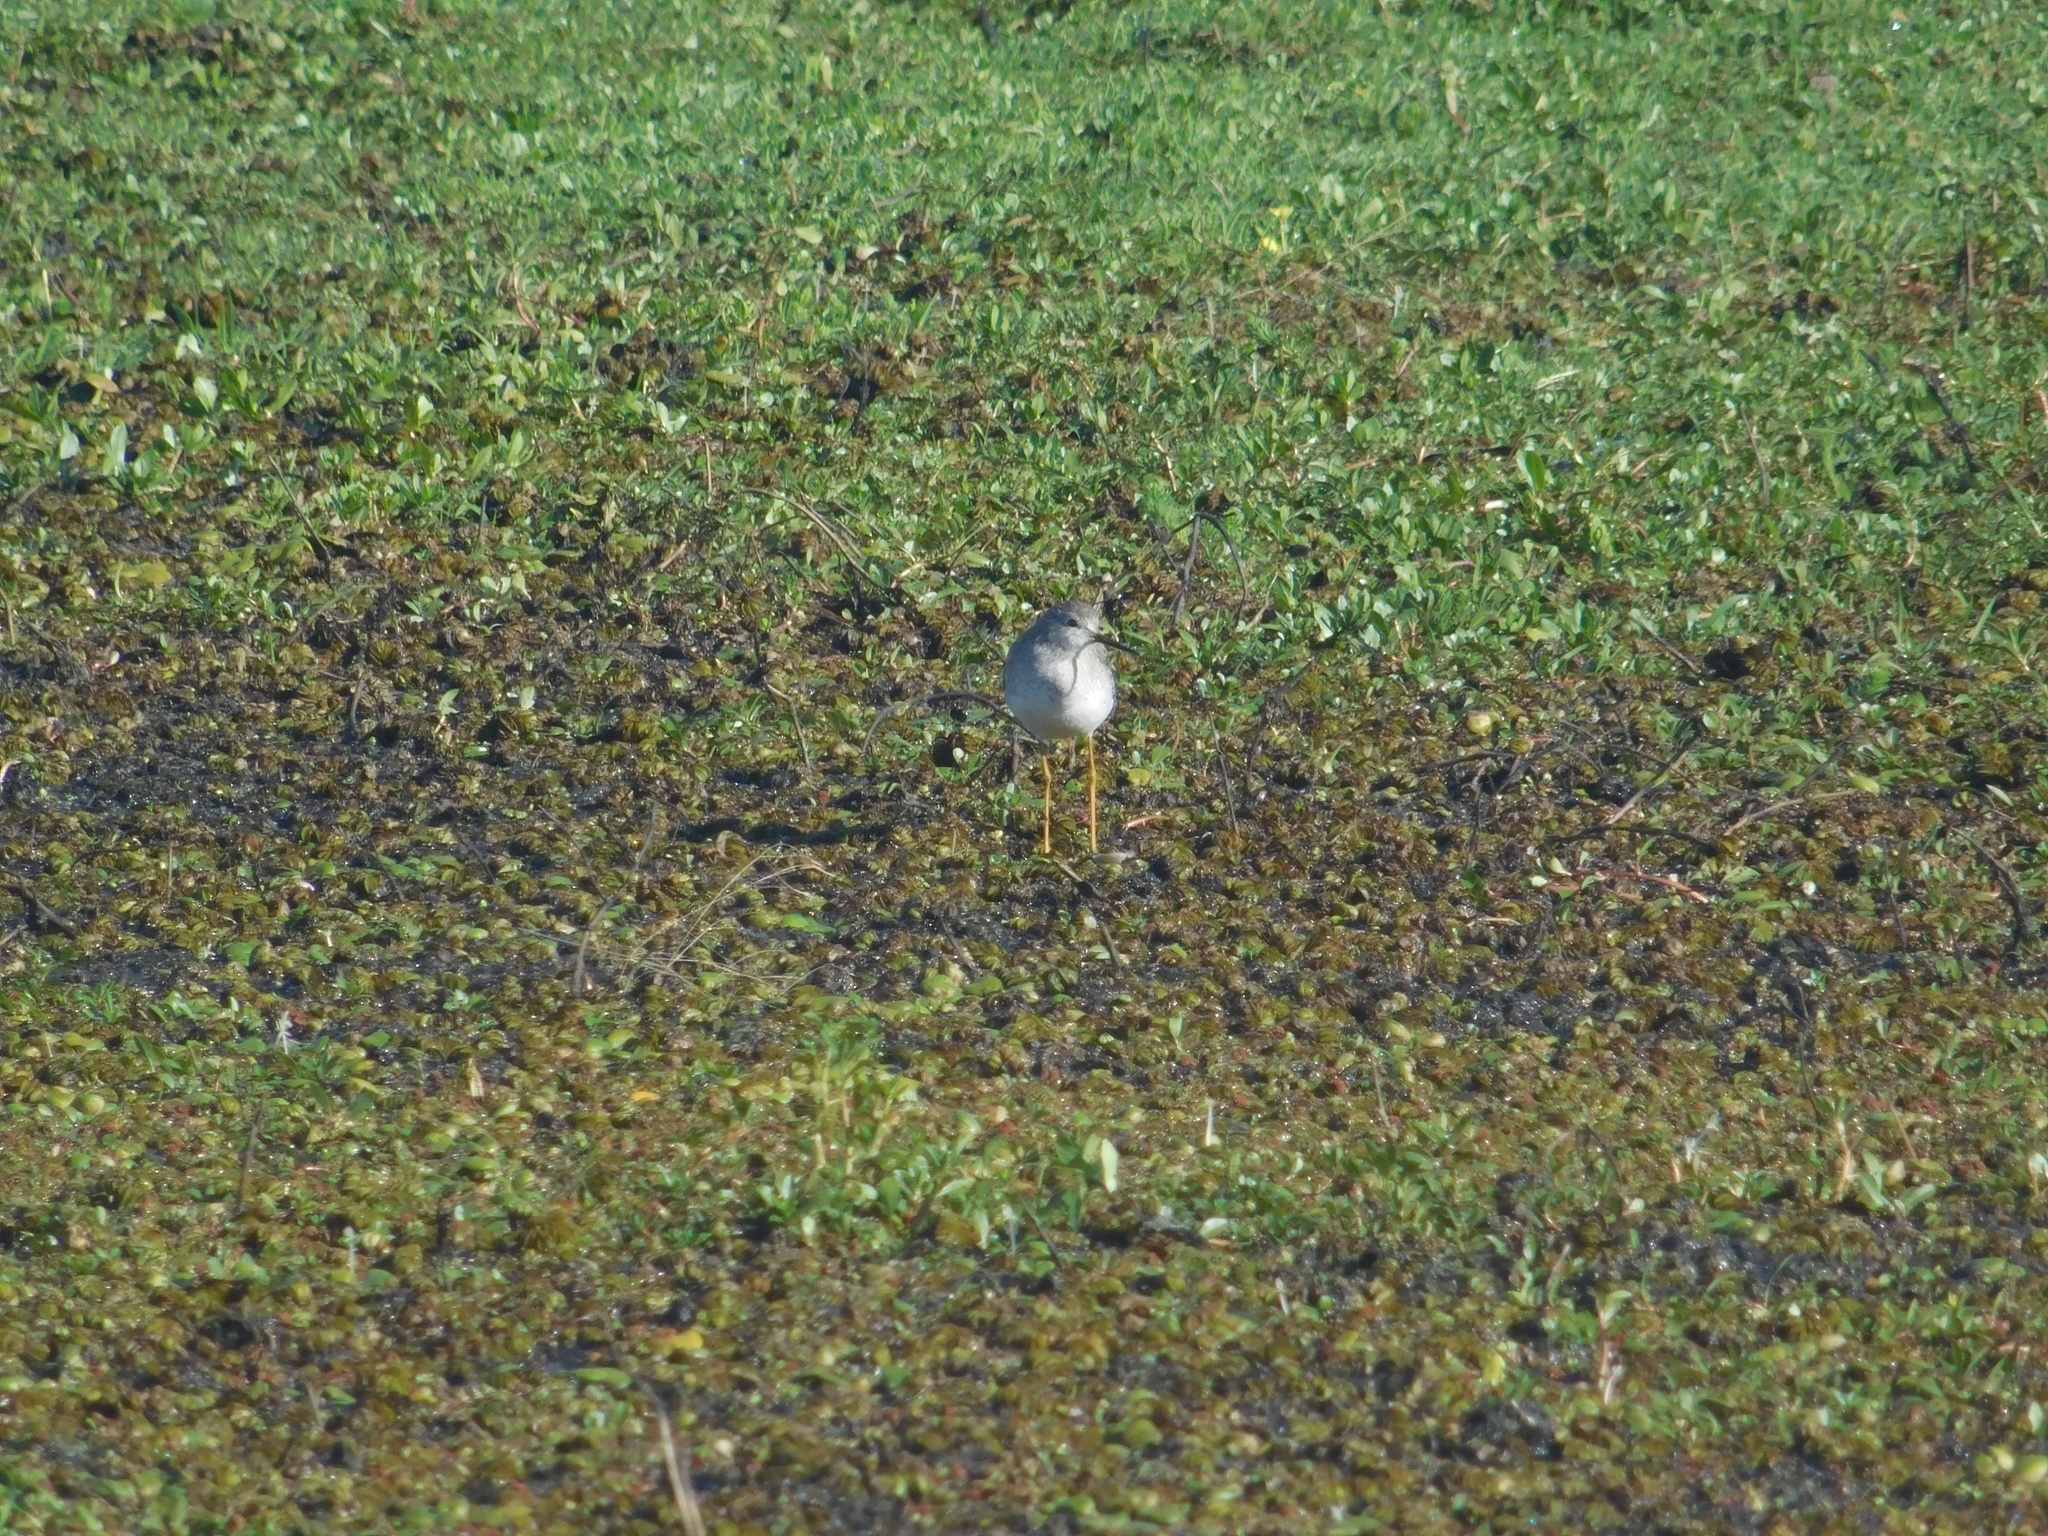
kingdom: Animalia
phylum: Chordata
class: Aves
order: Charadriiformes
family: Scolopacidae
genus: Tringa
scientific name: Tringa flavipes
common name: Lesser yellowlegs
